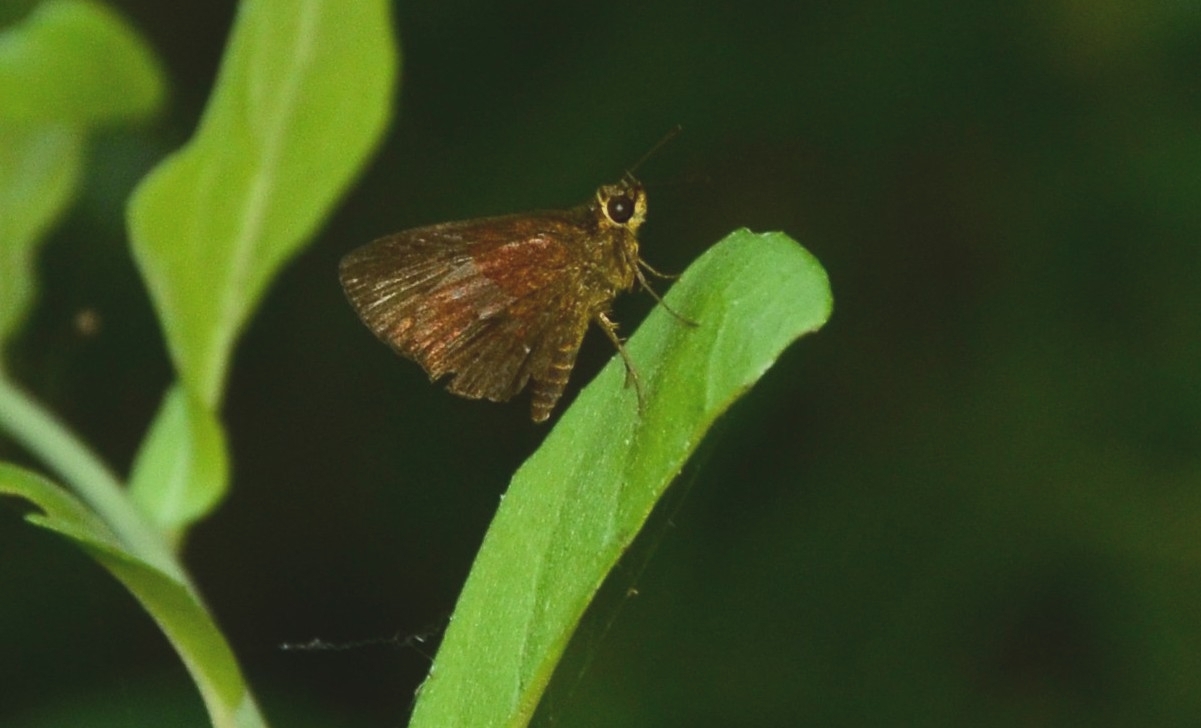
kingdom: Animalia
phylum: Arthropoda
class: Insecta
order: Lepidoptera
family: Hesperiidae
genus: Iambrix
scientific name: Iambrix salsala
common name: Chestnut bob
